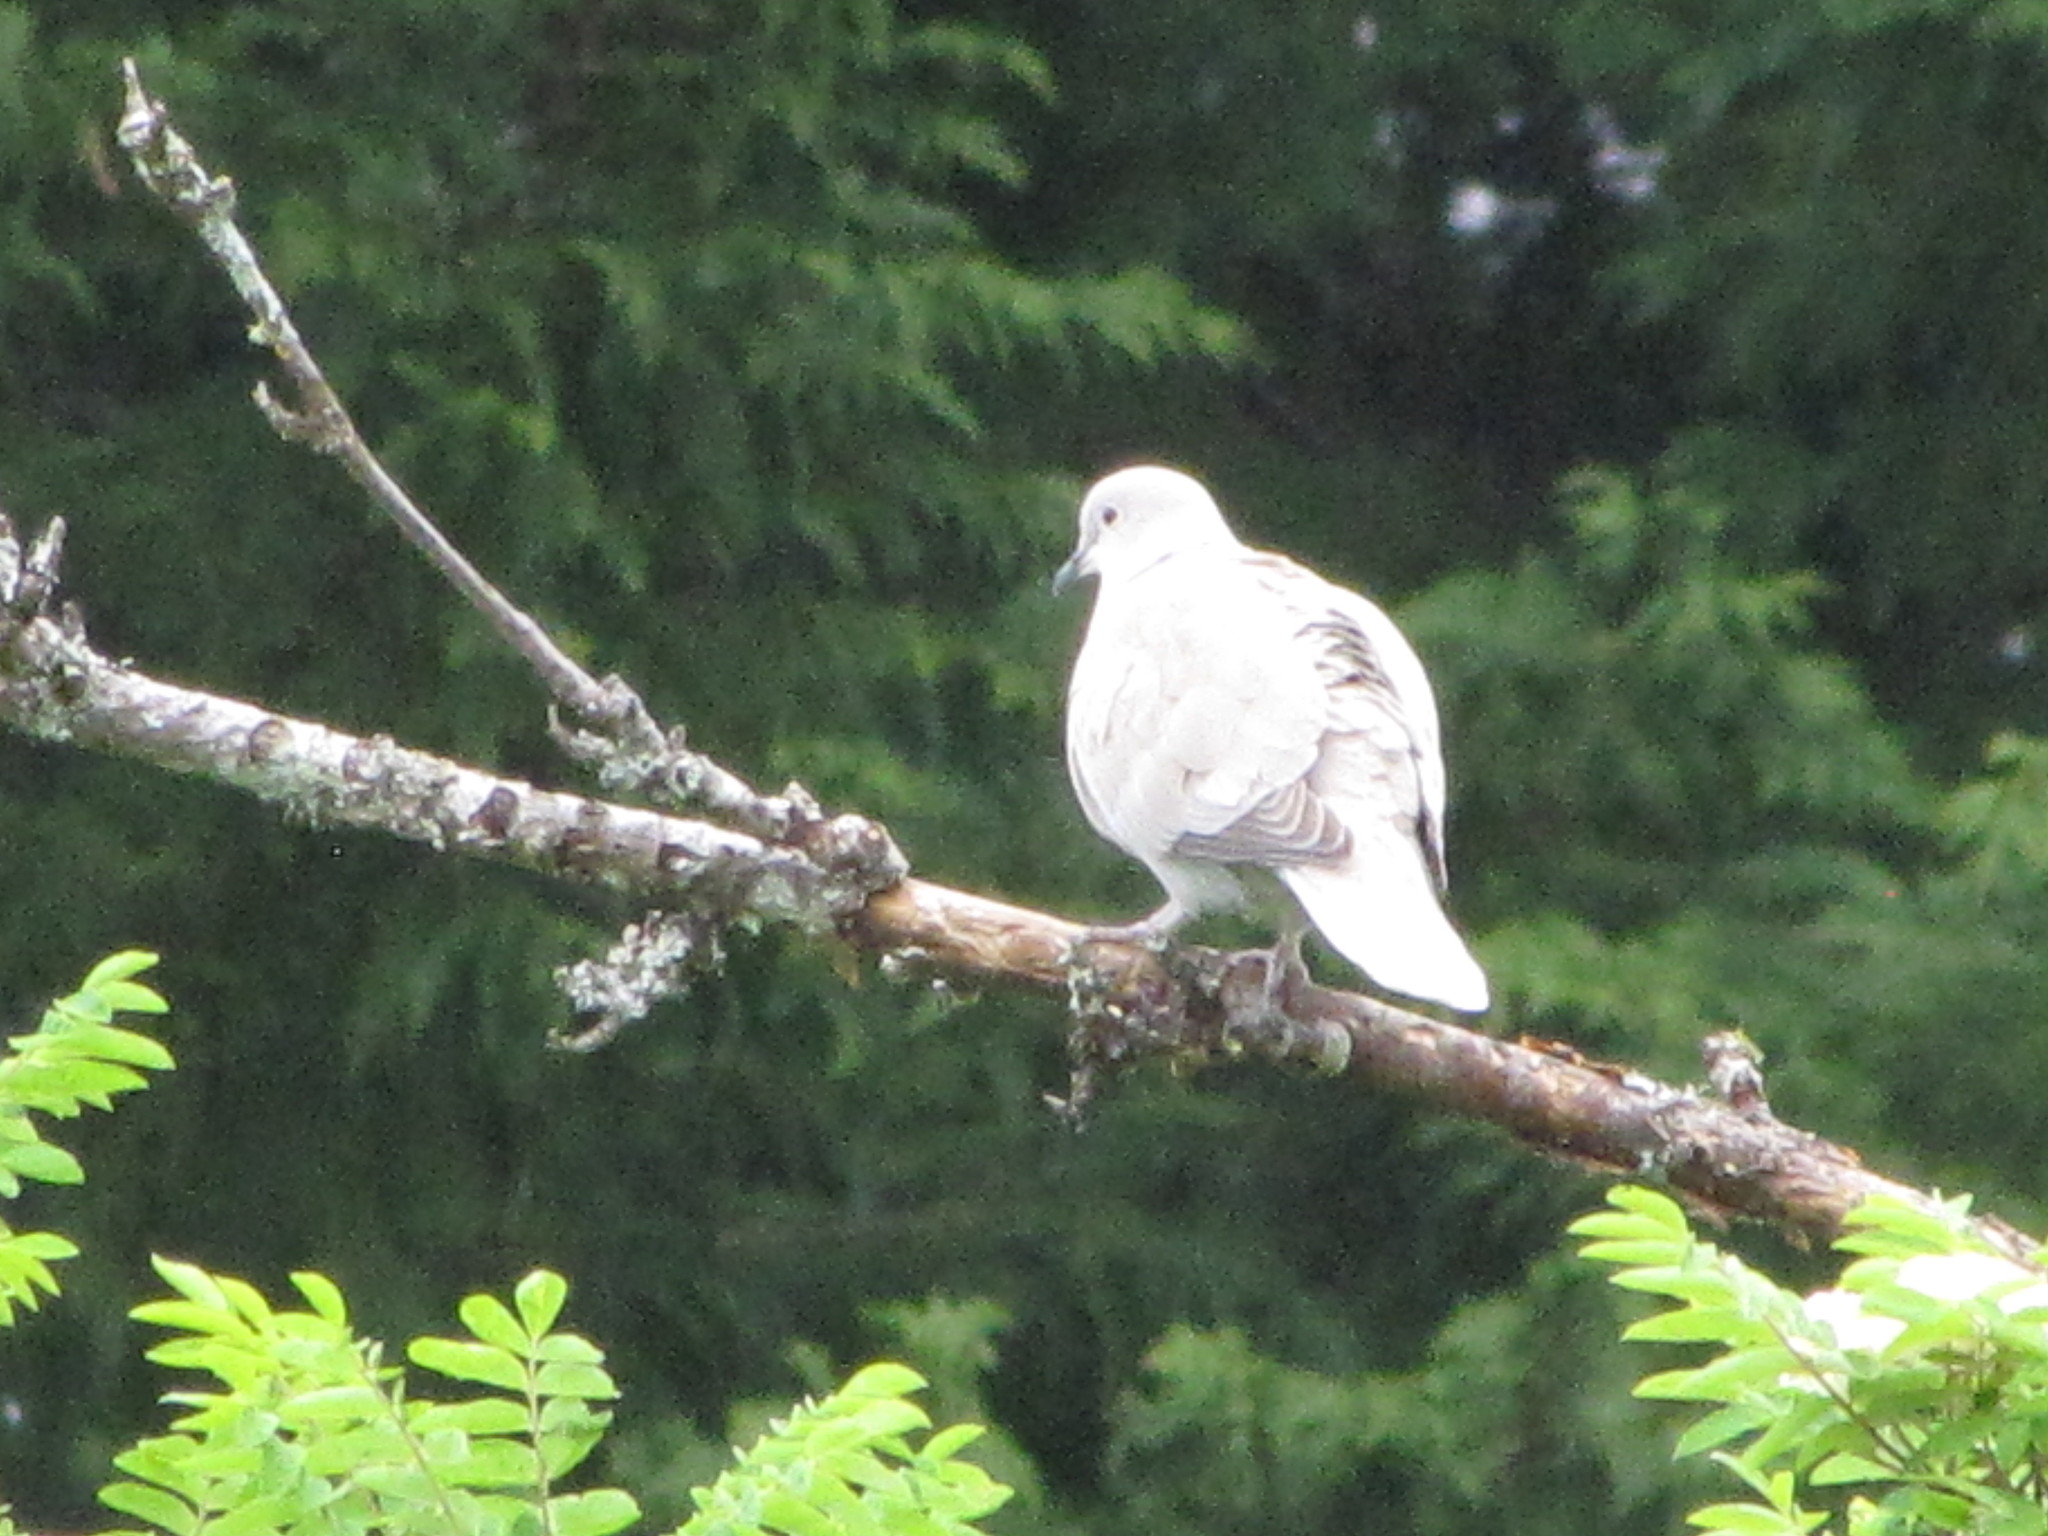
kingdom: Animalia
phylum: Chordata
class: Aves
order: Columbiformes
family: Columbidae
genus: Streptopelia
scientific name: Streptopelia decaocto
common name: Eurasian collared dove
